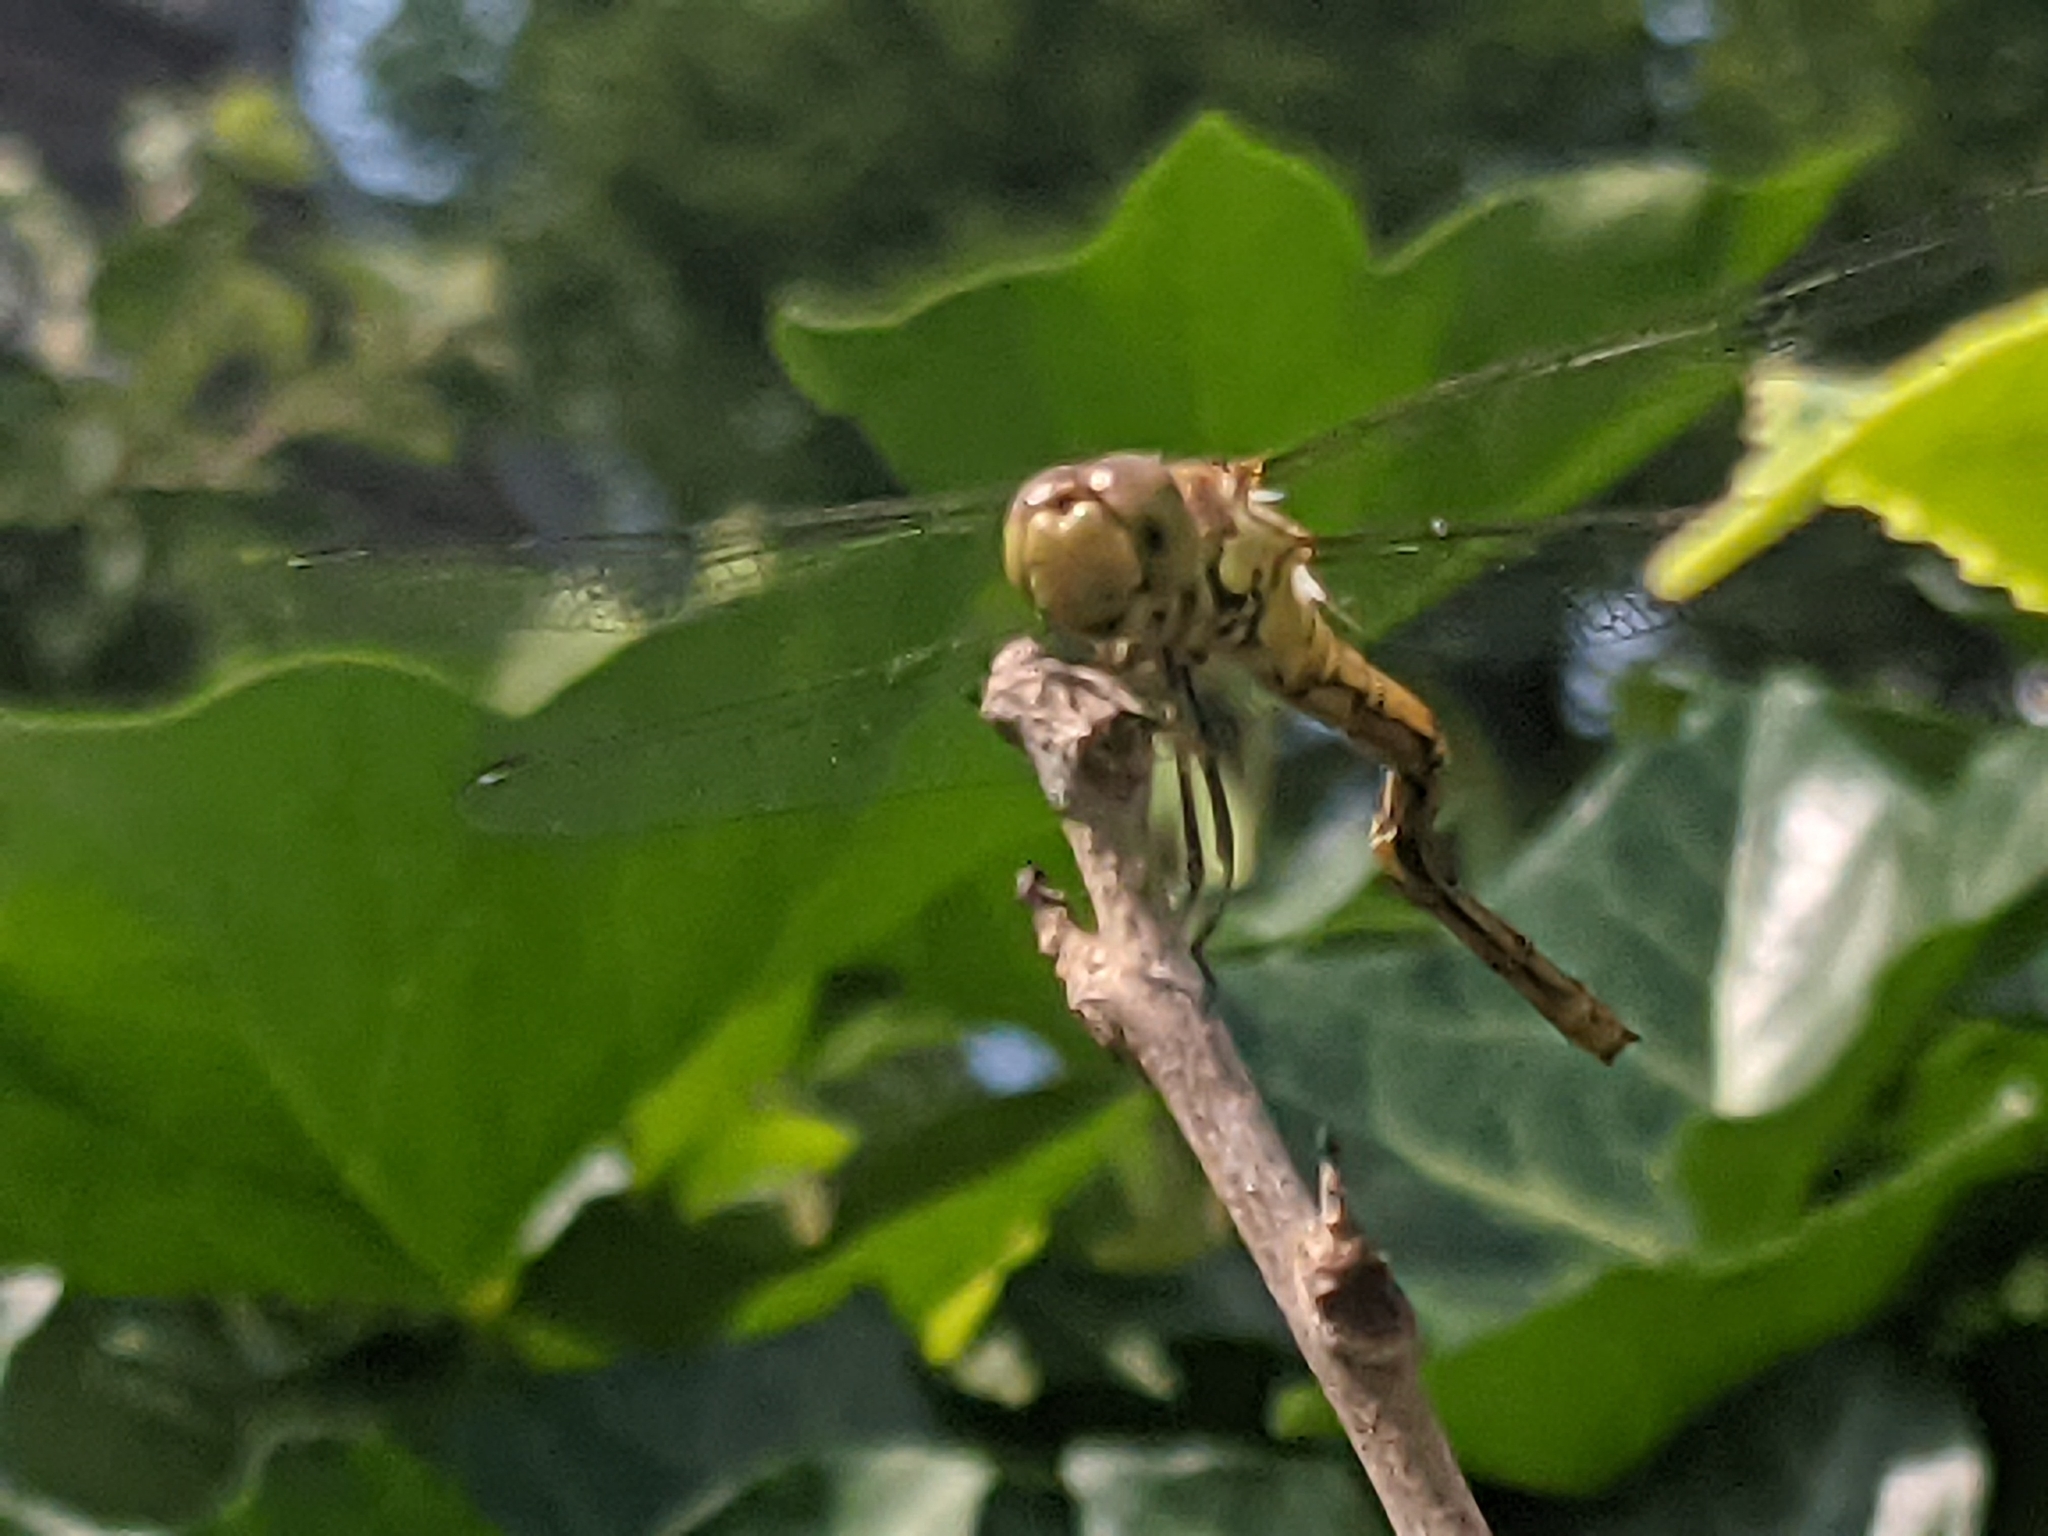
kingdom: Animalia
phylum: Arthropoda
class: Insecta
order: Odonata
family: Libellulidae
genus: Sympetrum
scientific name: Sympetrum striolatum
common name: Common darter
